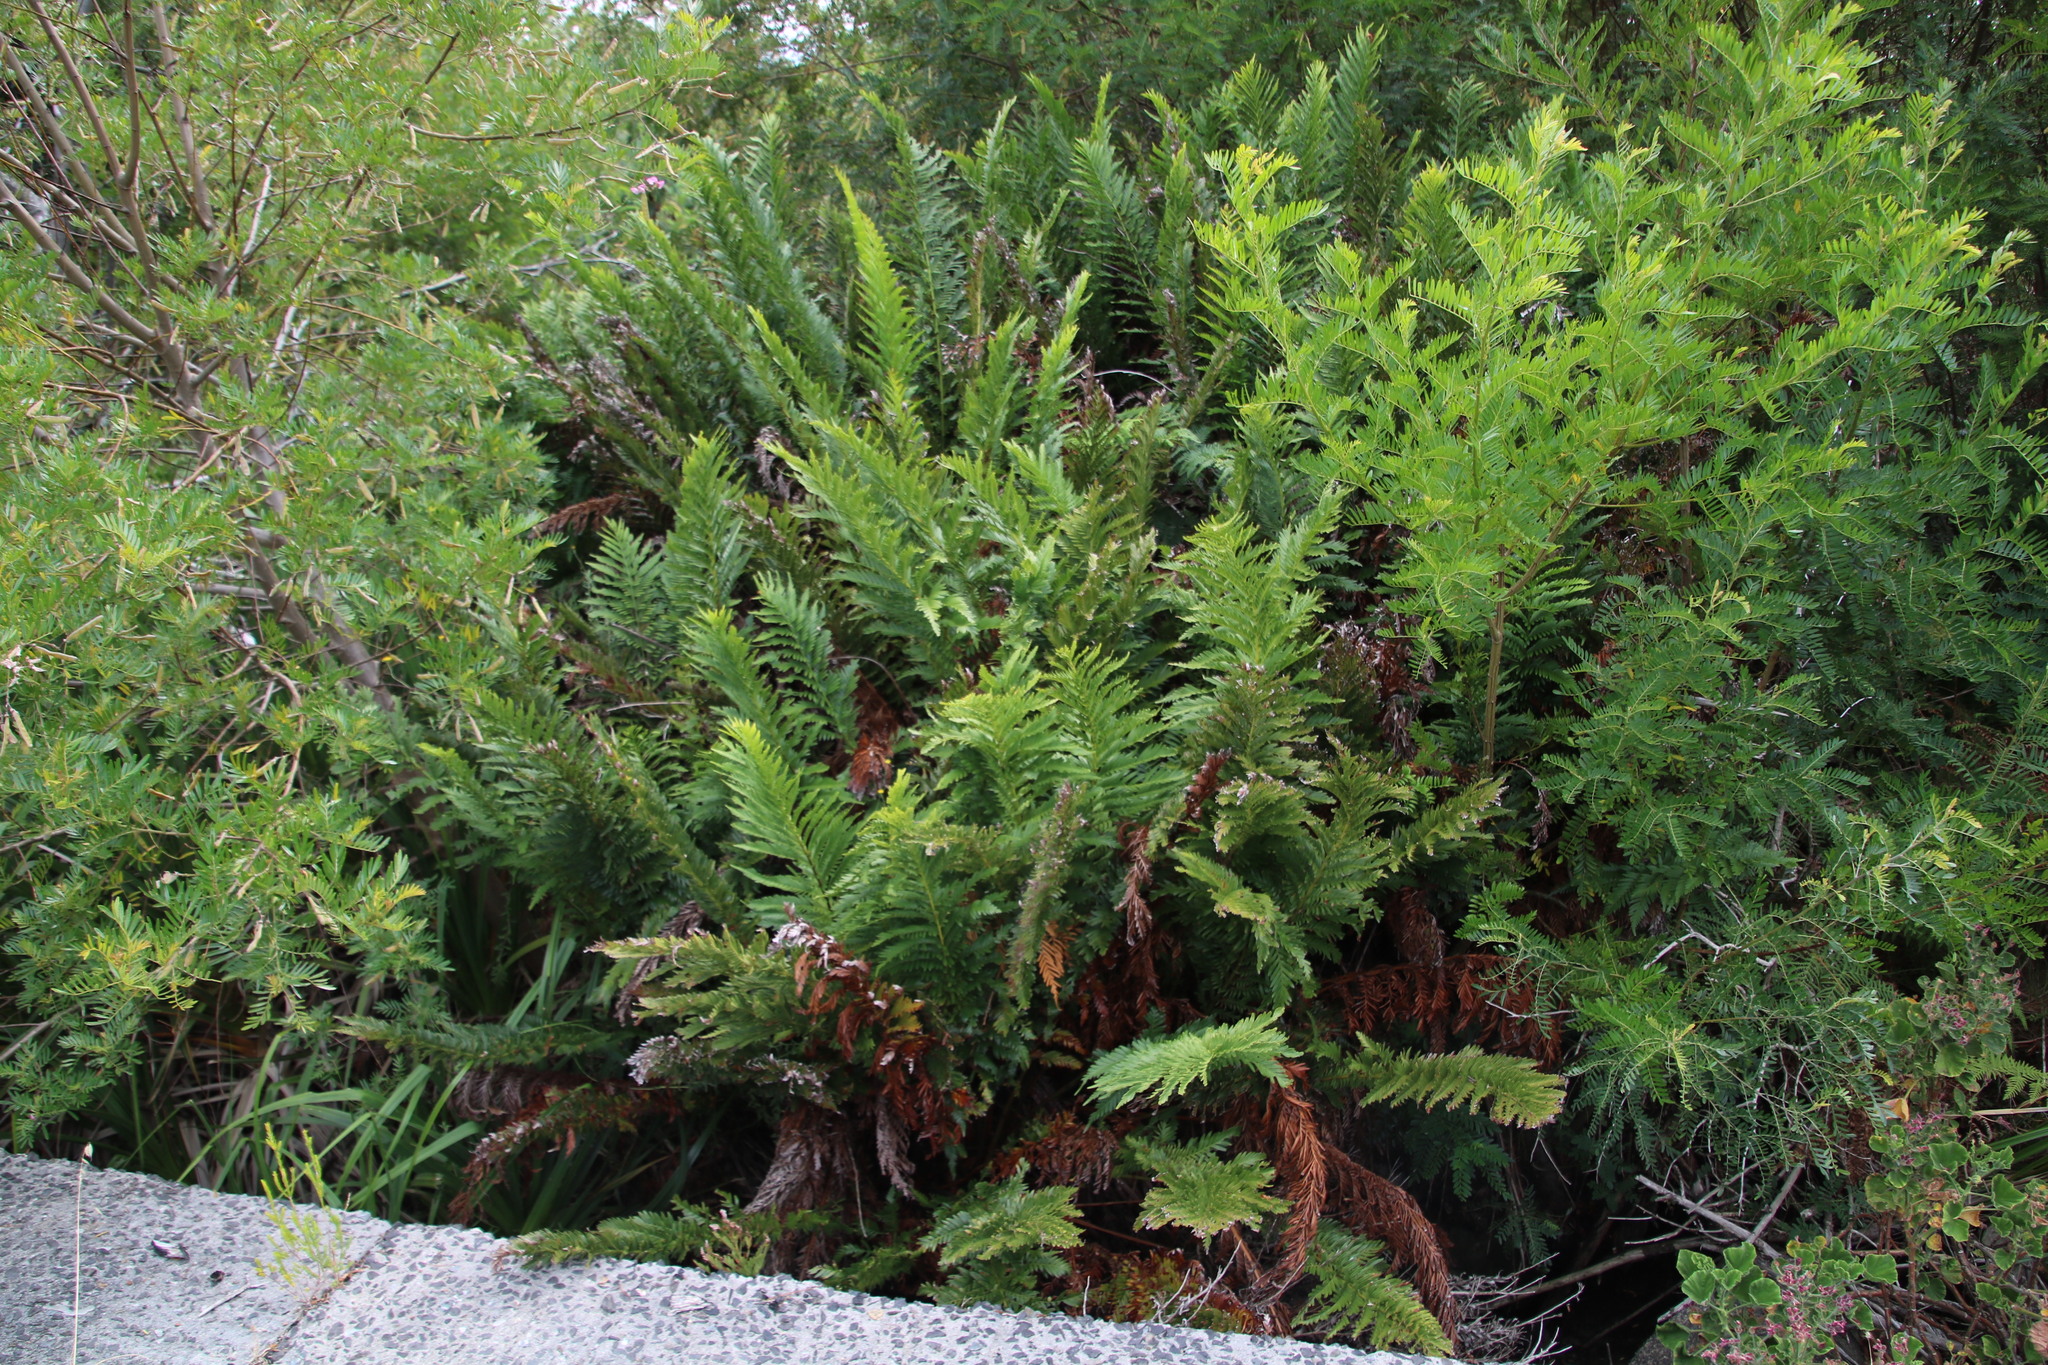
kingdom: Plantae
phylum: Tracheophyta
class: Polypodiopsida
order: Osmundales
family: Osmundaceae
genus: Todea
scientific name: Todea barbara
